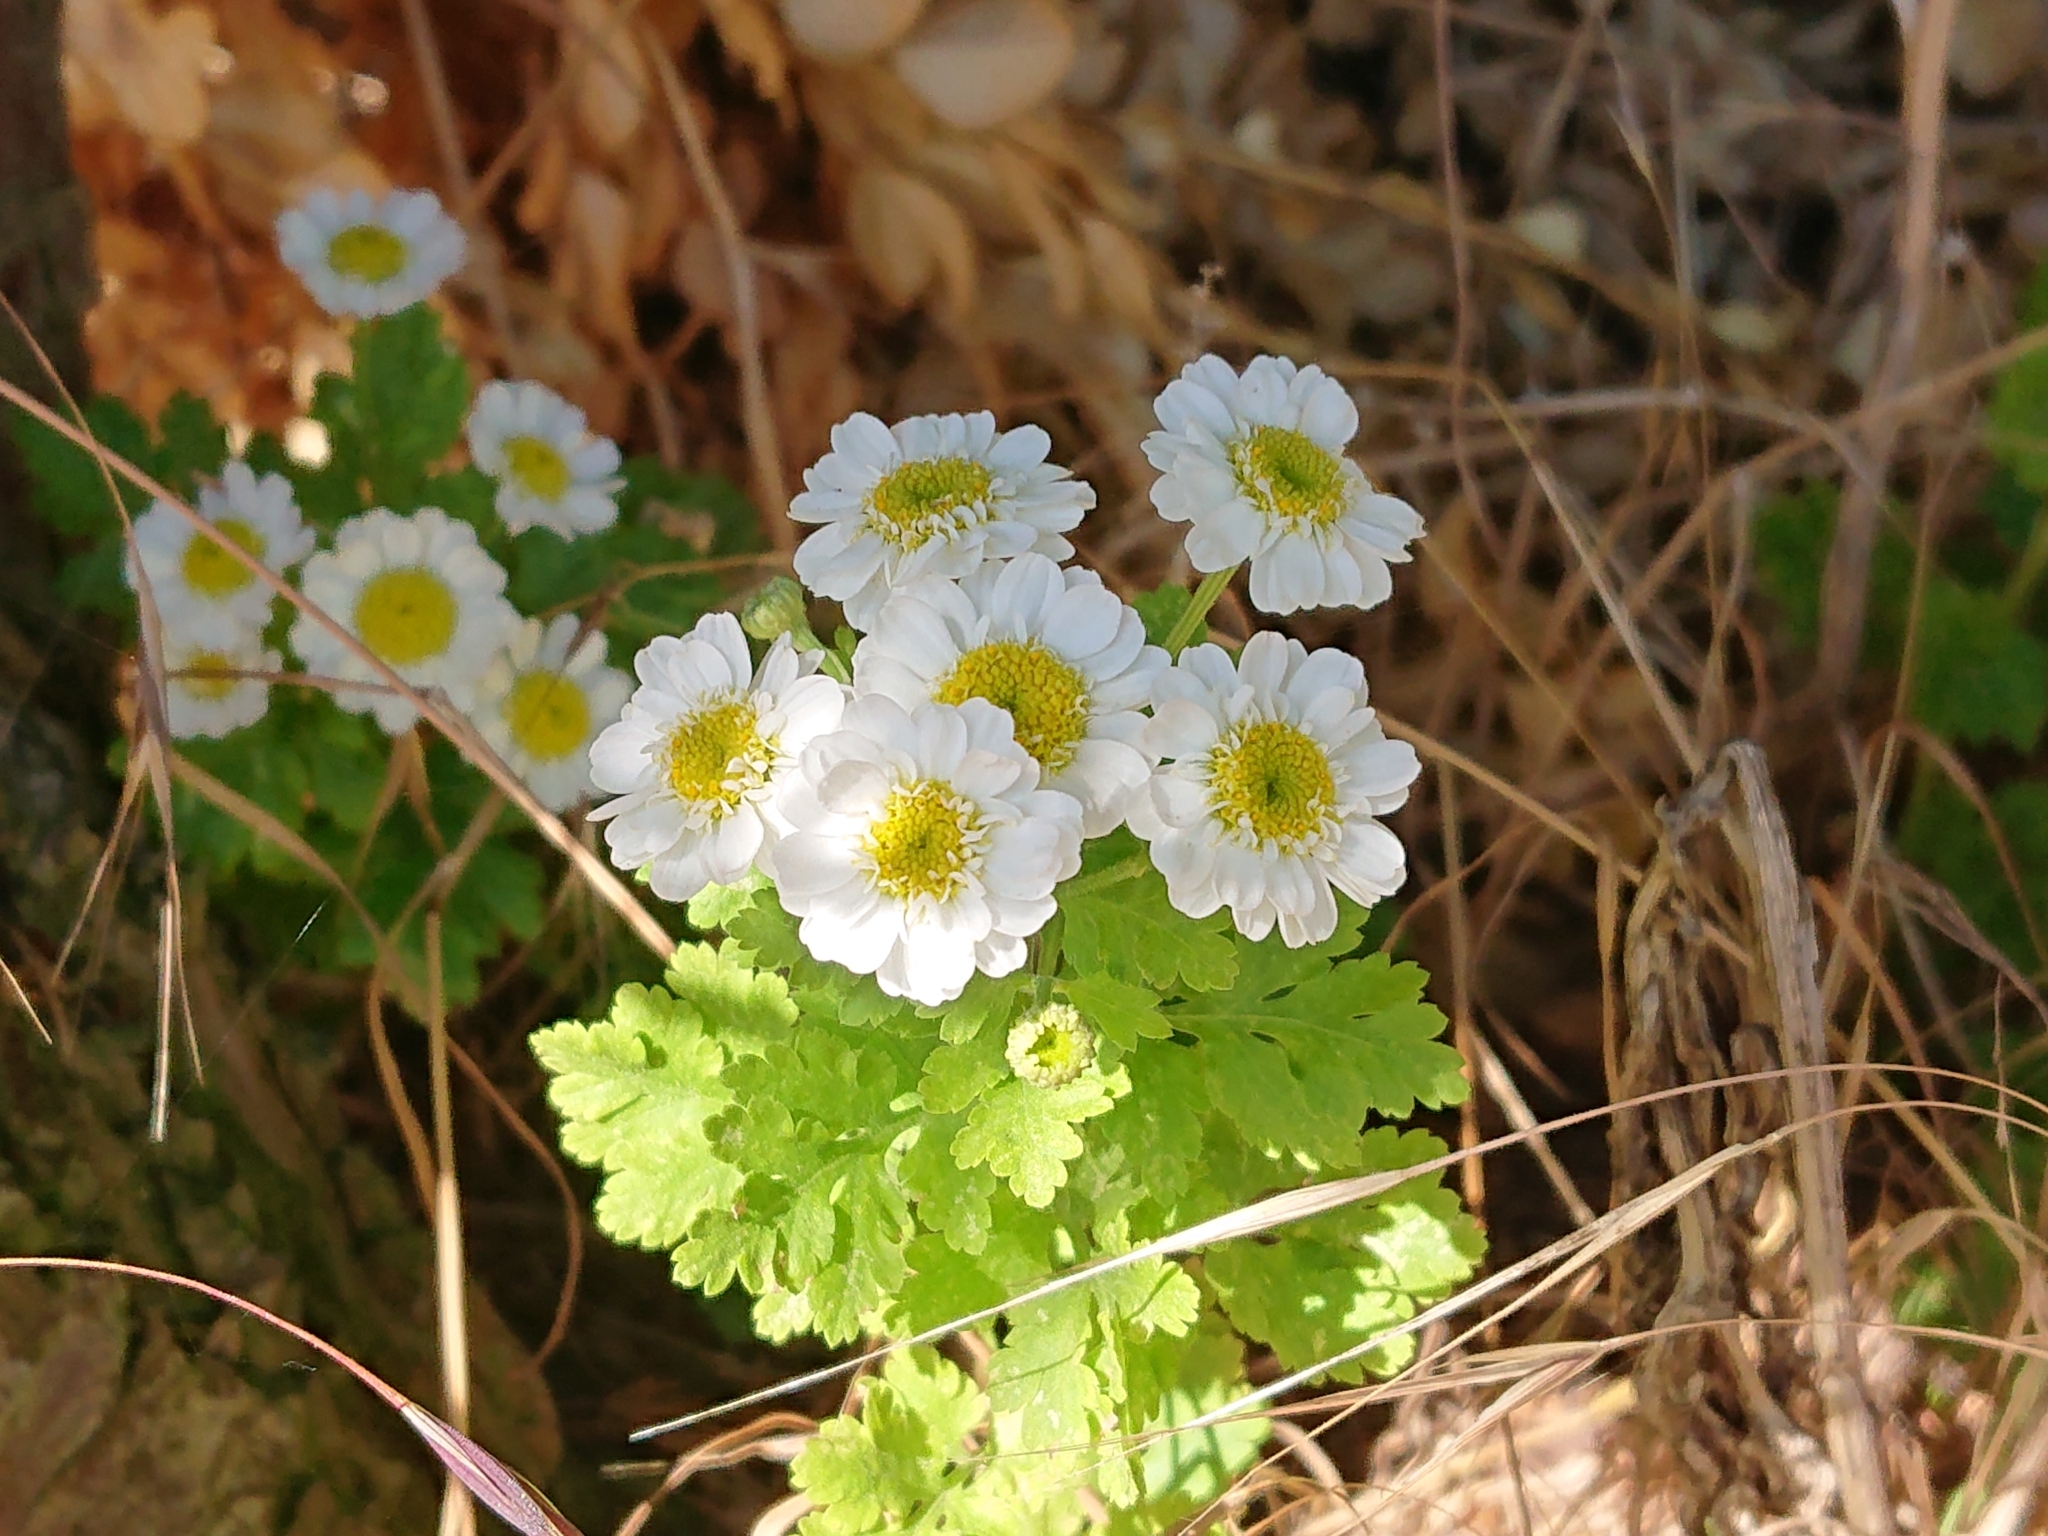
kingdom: Plantae
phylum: Tracheophyta
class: Magnoliopsida
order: Asterales
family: Asteraceae
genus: Tanacetum
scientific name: Tanacetum parthenium
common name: Feverfew
